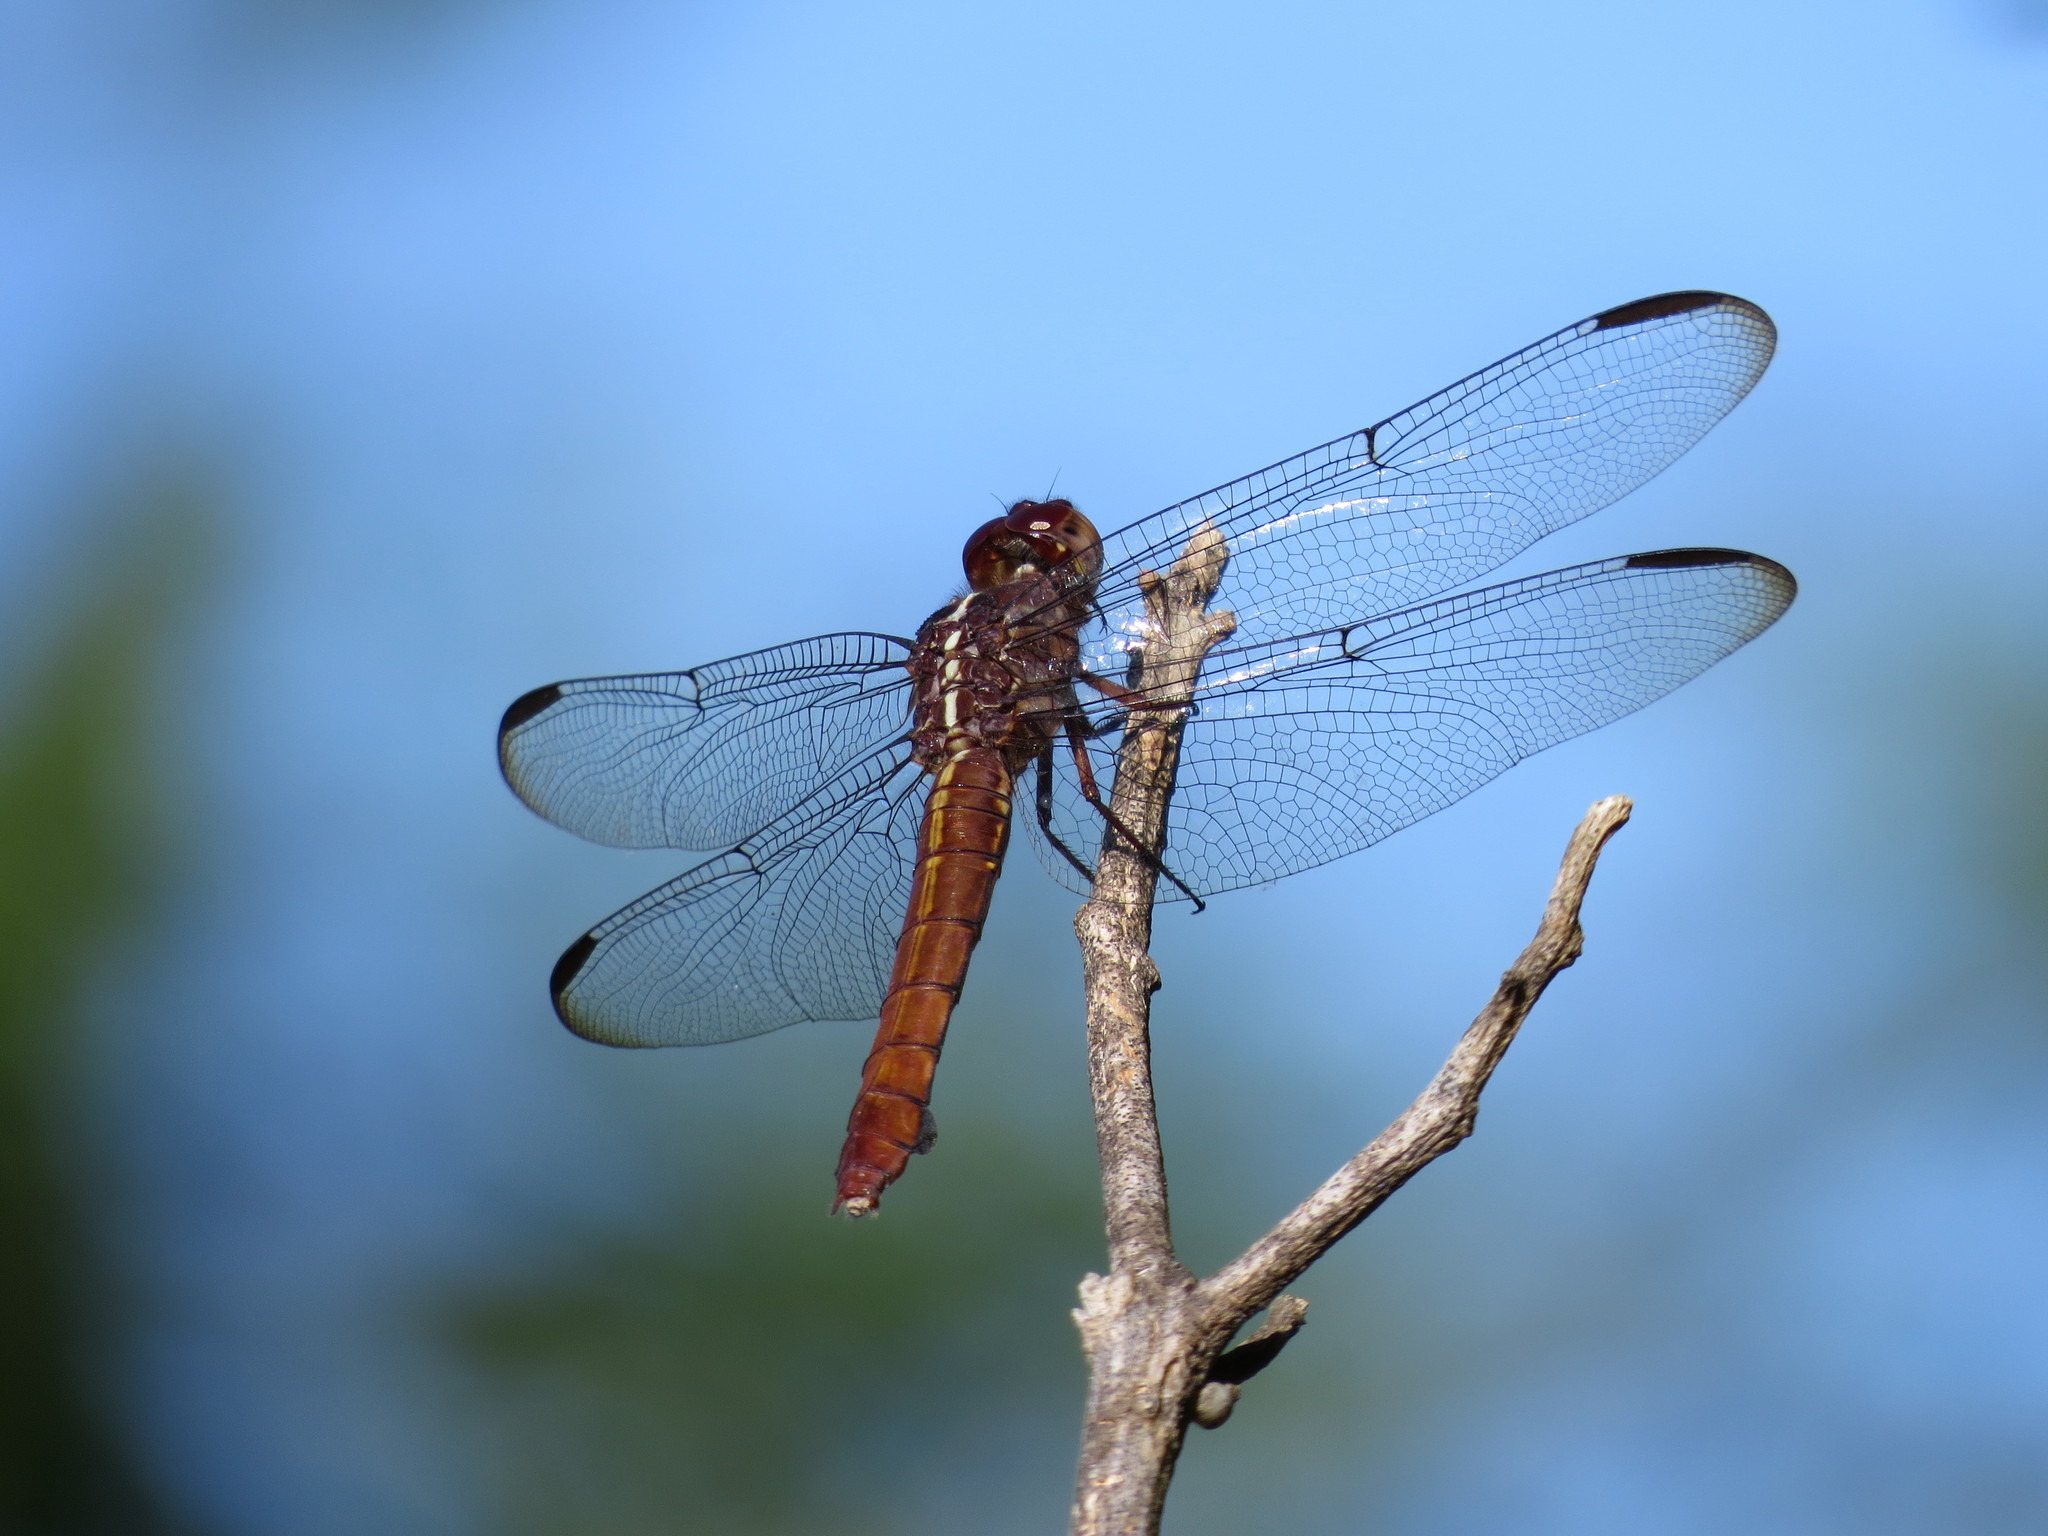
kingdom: Animalia
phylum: Arthropoda
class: Insecta
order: Odonata
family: Libellulidae
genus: Orthemis
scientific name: Orthemis ferruginea
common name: Roseate skimmer
